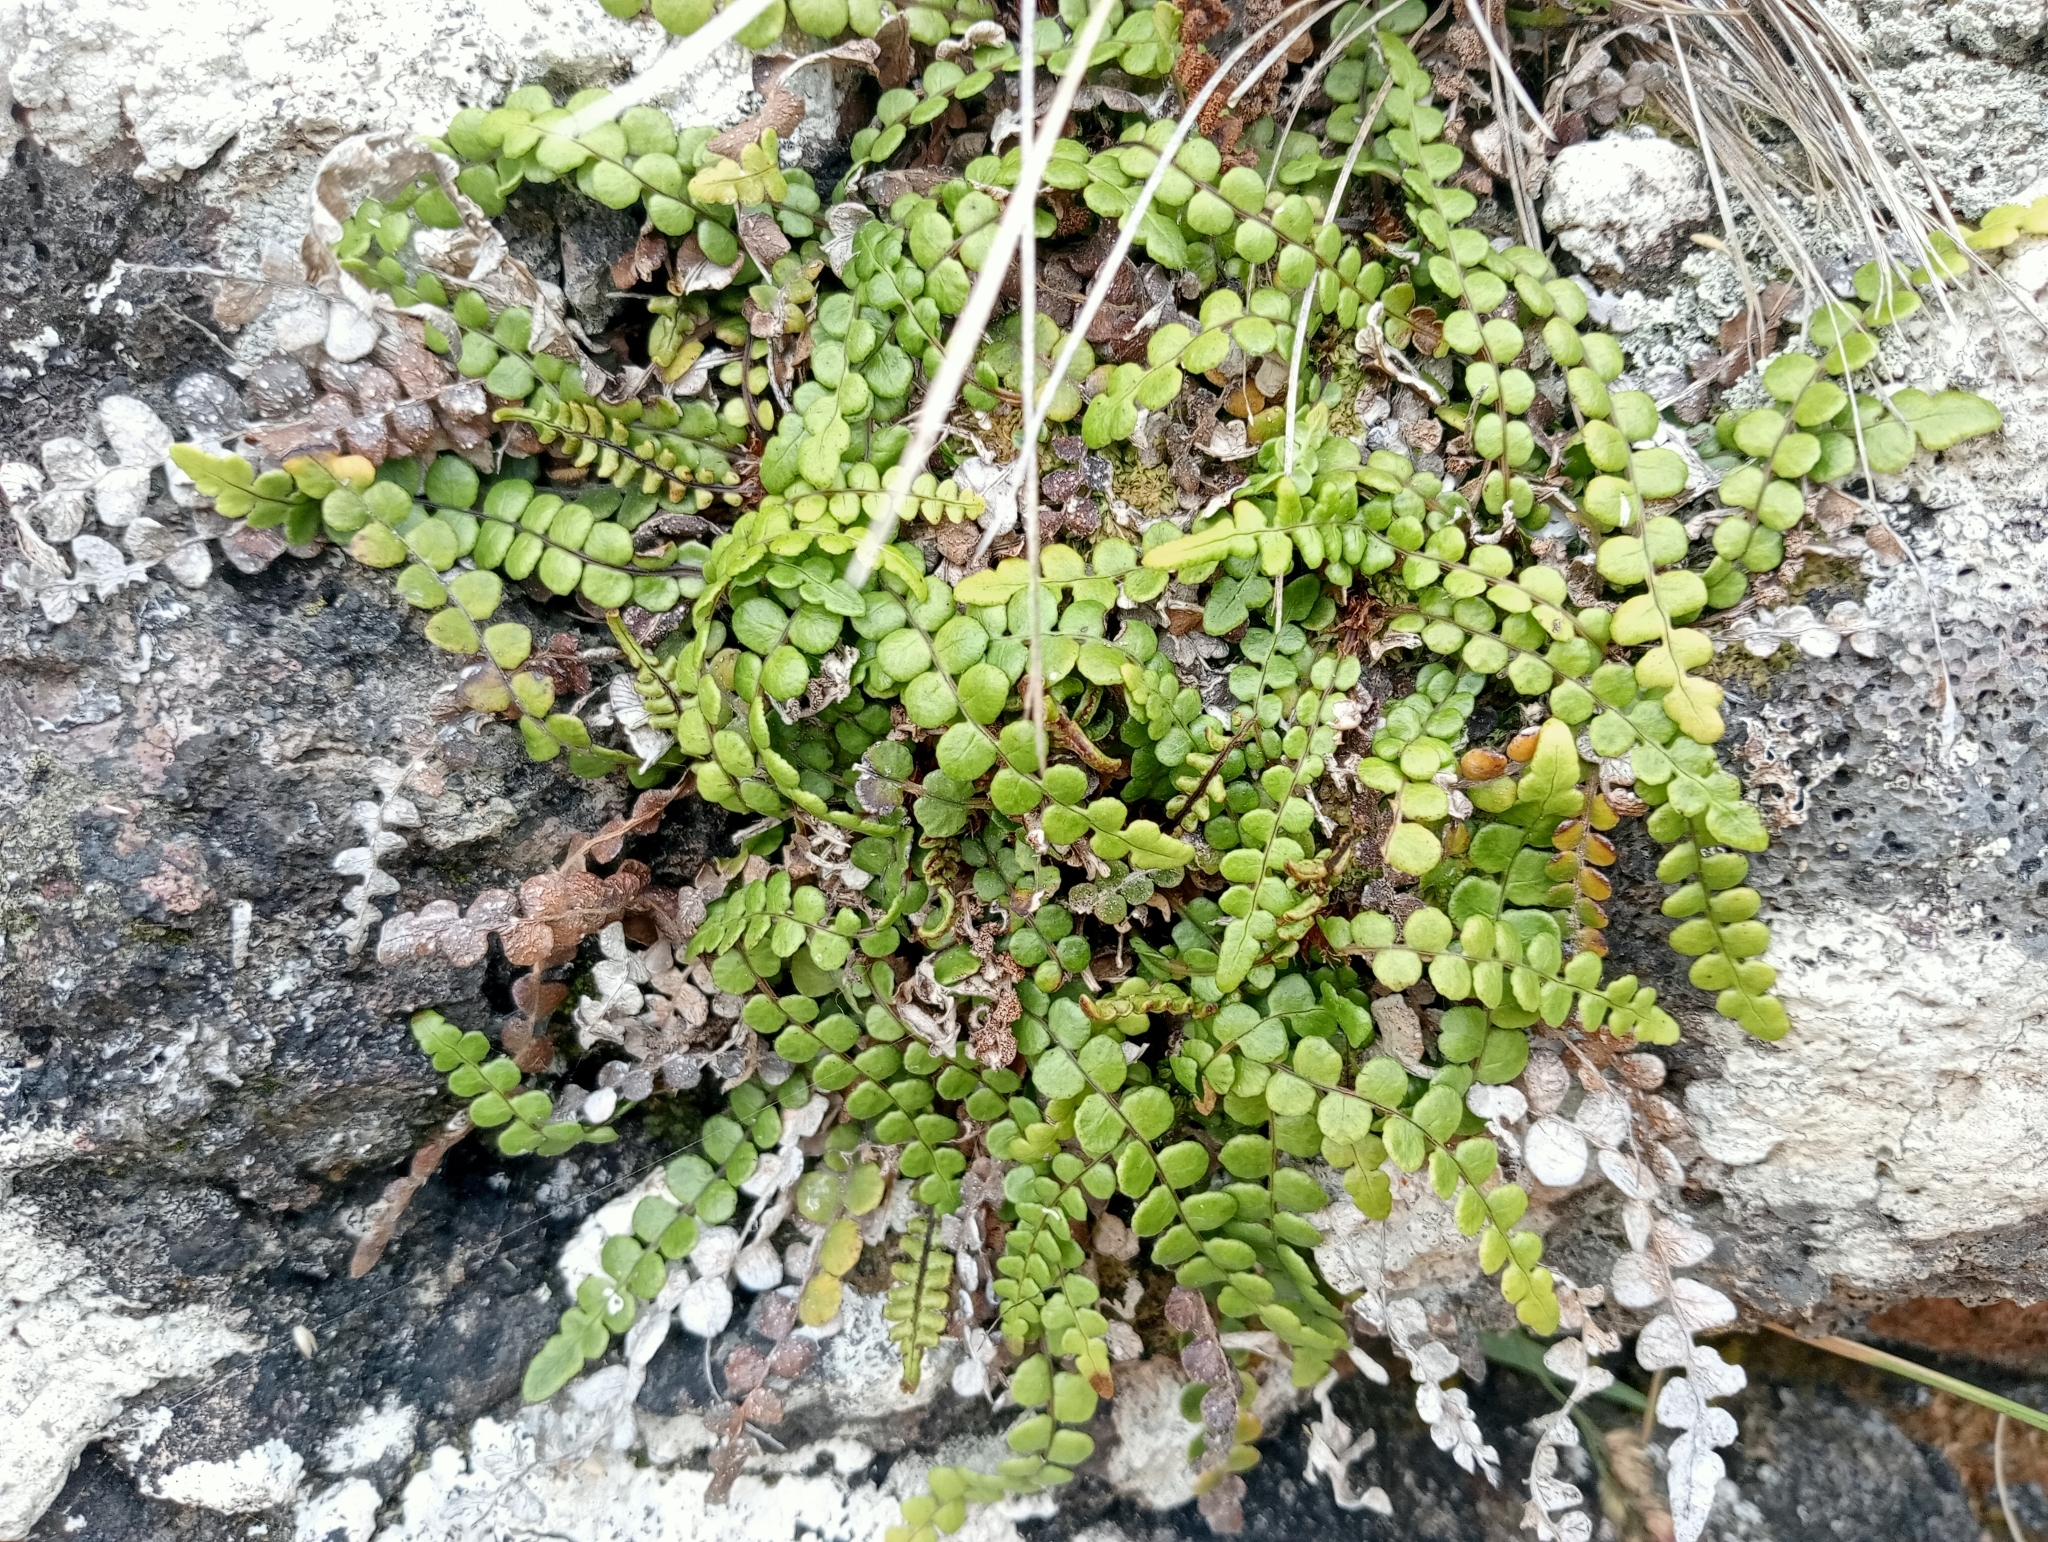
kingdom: Plantae
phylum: Tracheophyta
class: Polypodiopsida
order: Polypodiales
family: Blechnaceae
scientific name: Blechnaceae
